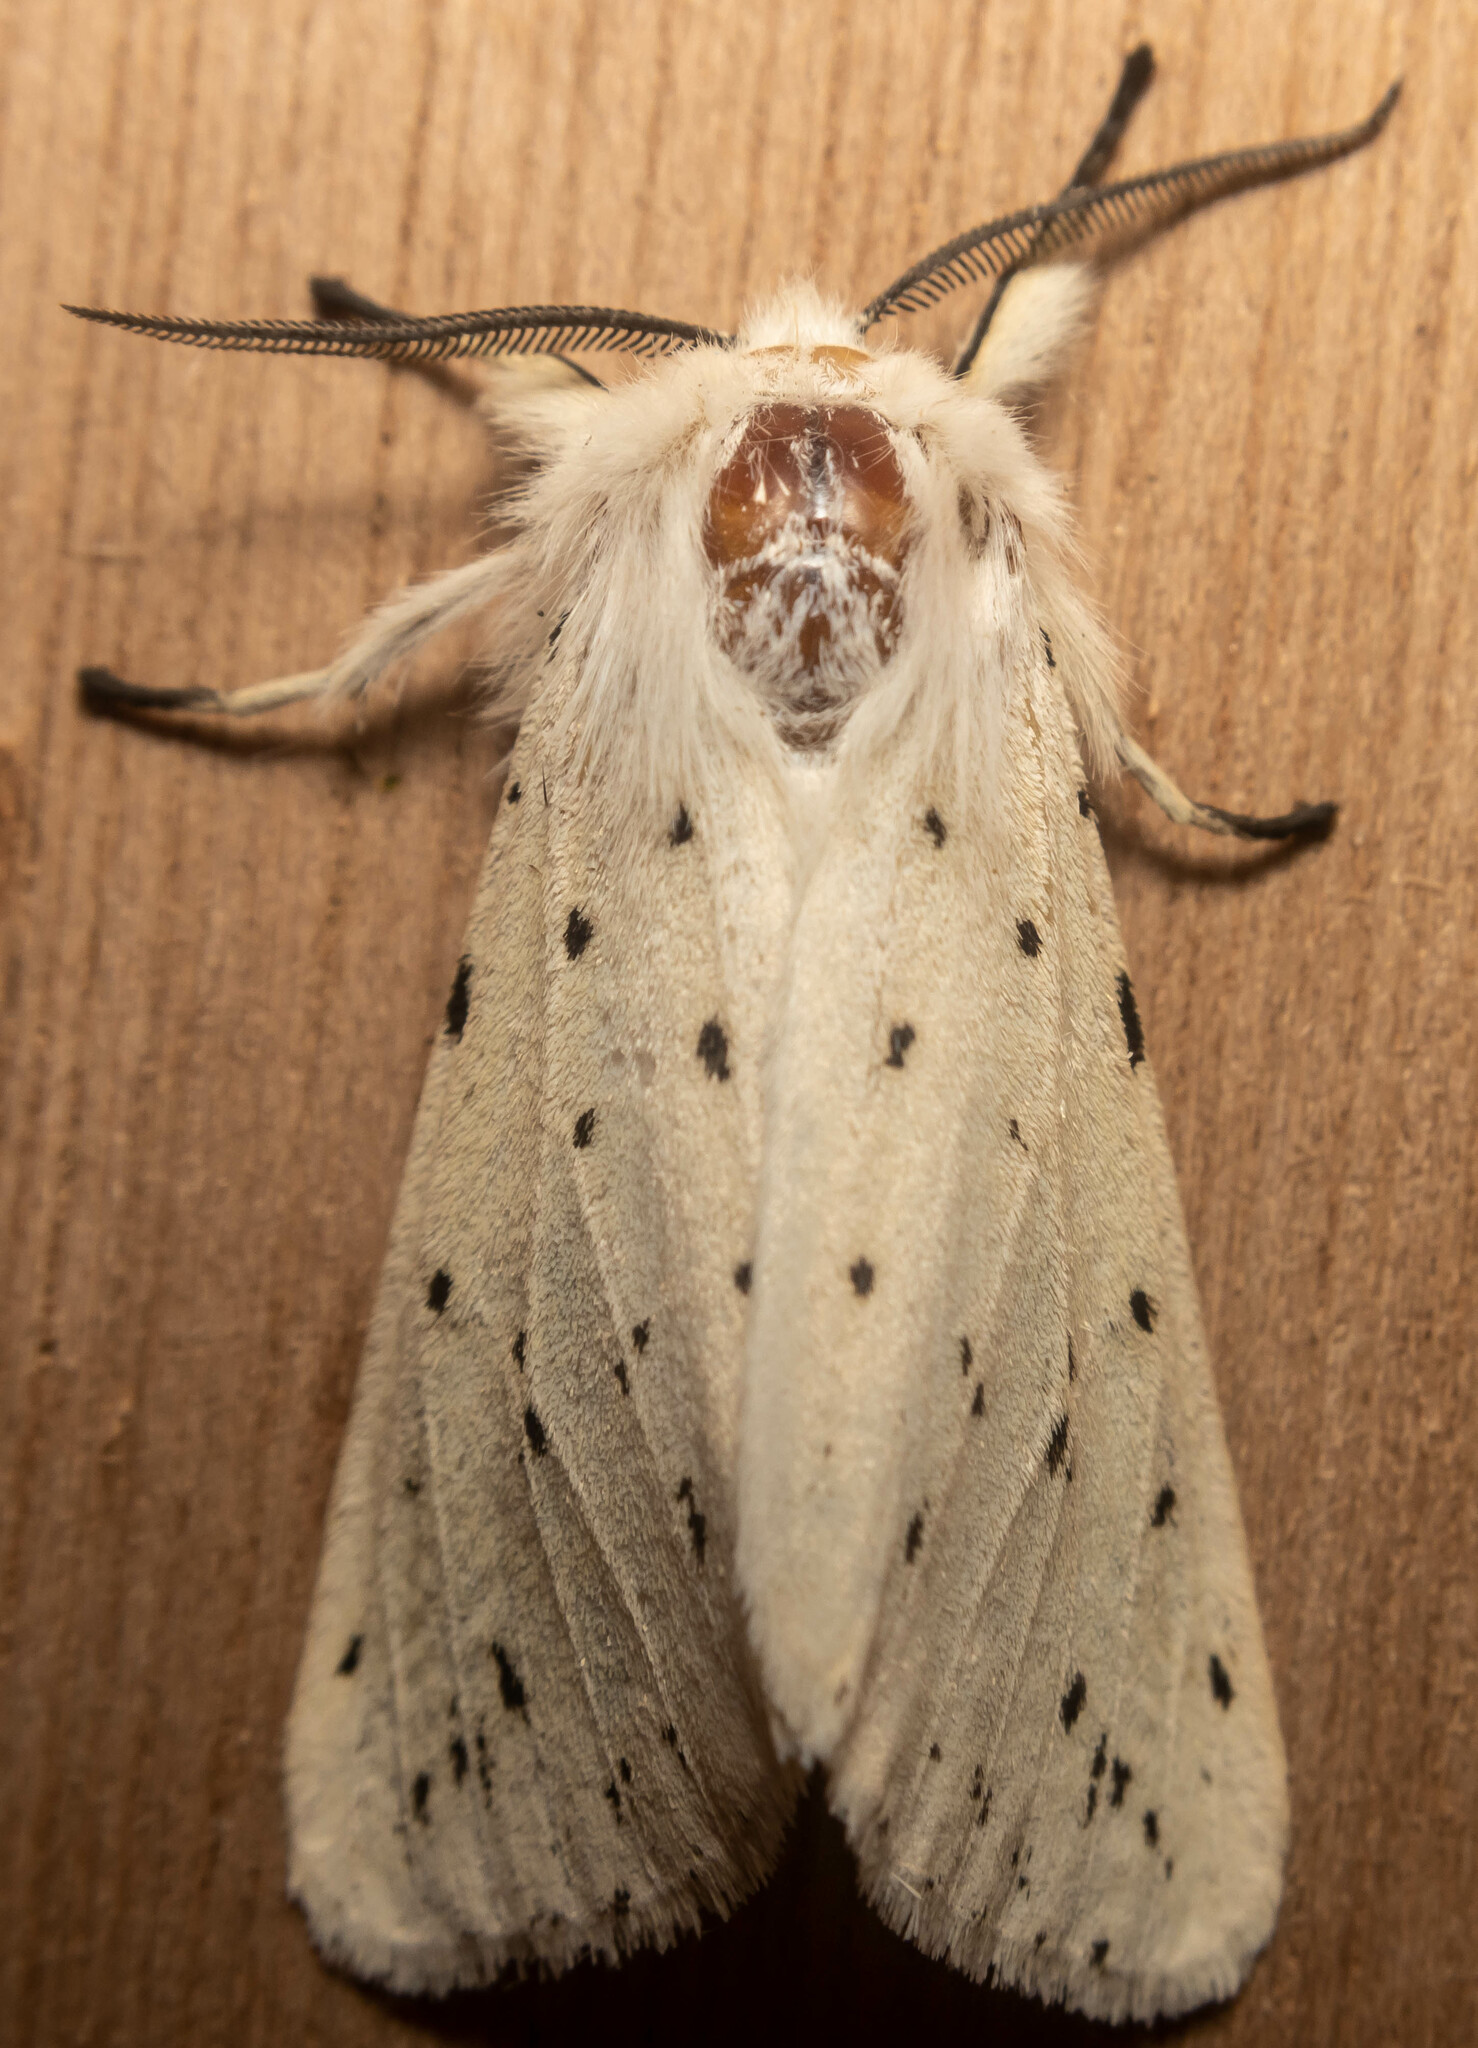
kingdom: Animalia
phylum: Arthropoda
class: Insecta
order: Lepidoptera
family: Erebidae
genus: Spilosoma
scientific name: Spilosoma lubricipeda
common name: White ermine
